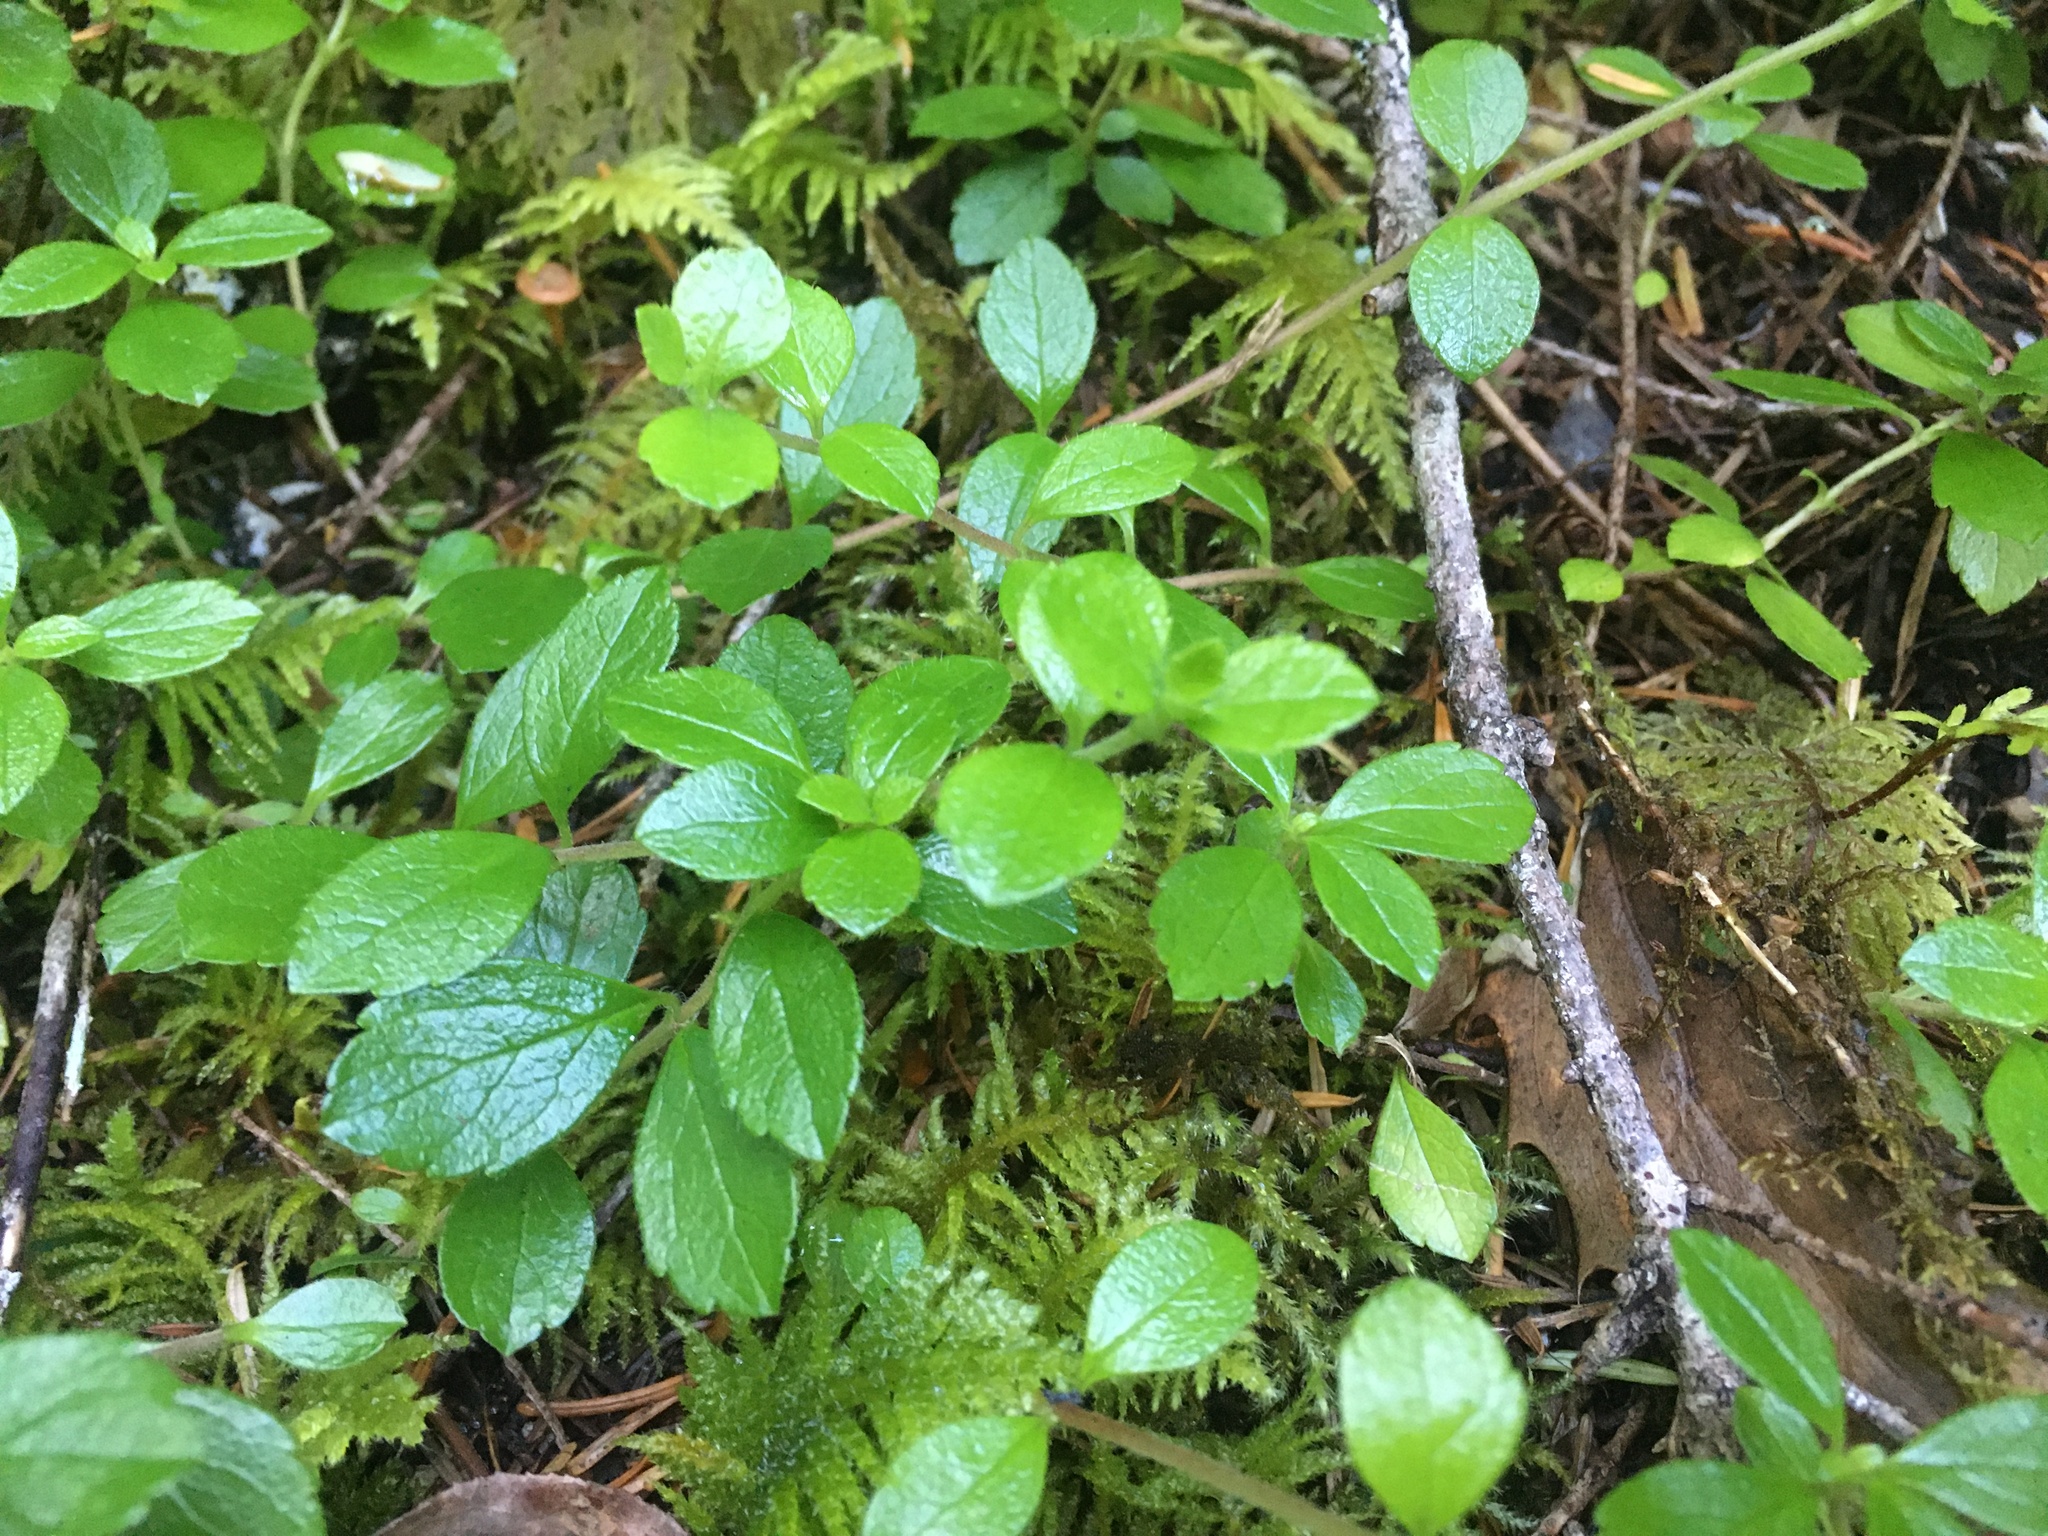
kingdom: Plantae
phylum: Tracheophyta
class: Magnoliopsida
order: Dipsacales
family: Caprifoliaceae
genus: Linnaea
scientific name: Linnaea borealis
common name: Twinflower
